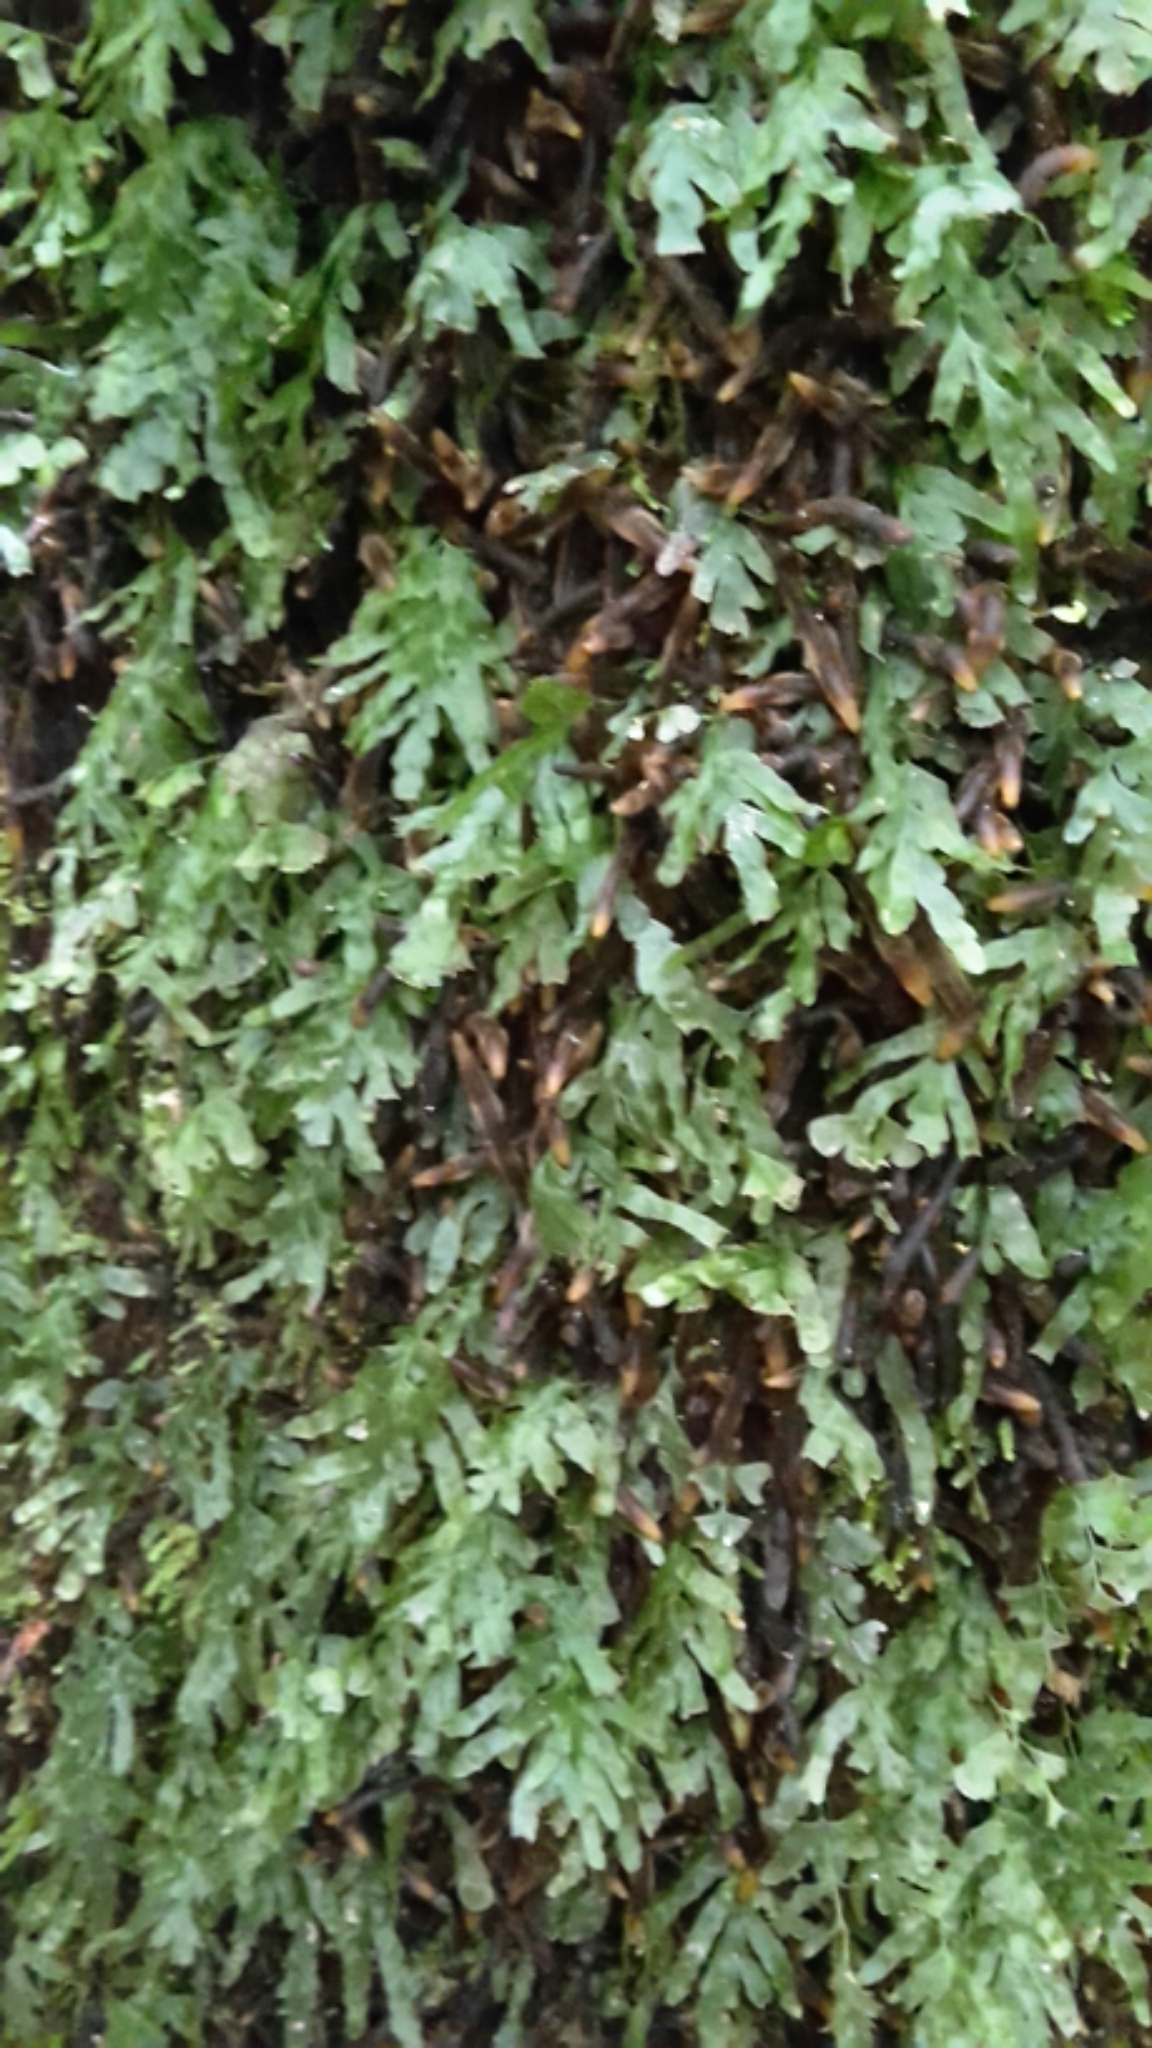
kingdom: Plantae
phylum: Tracheophyta
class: Polypodiopsida
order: Hymenophyllales
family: Hymenophyllaceae
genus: Polyphlebium
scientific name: Polyphlebium venosum
